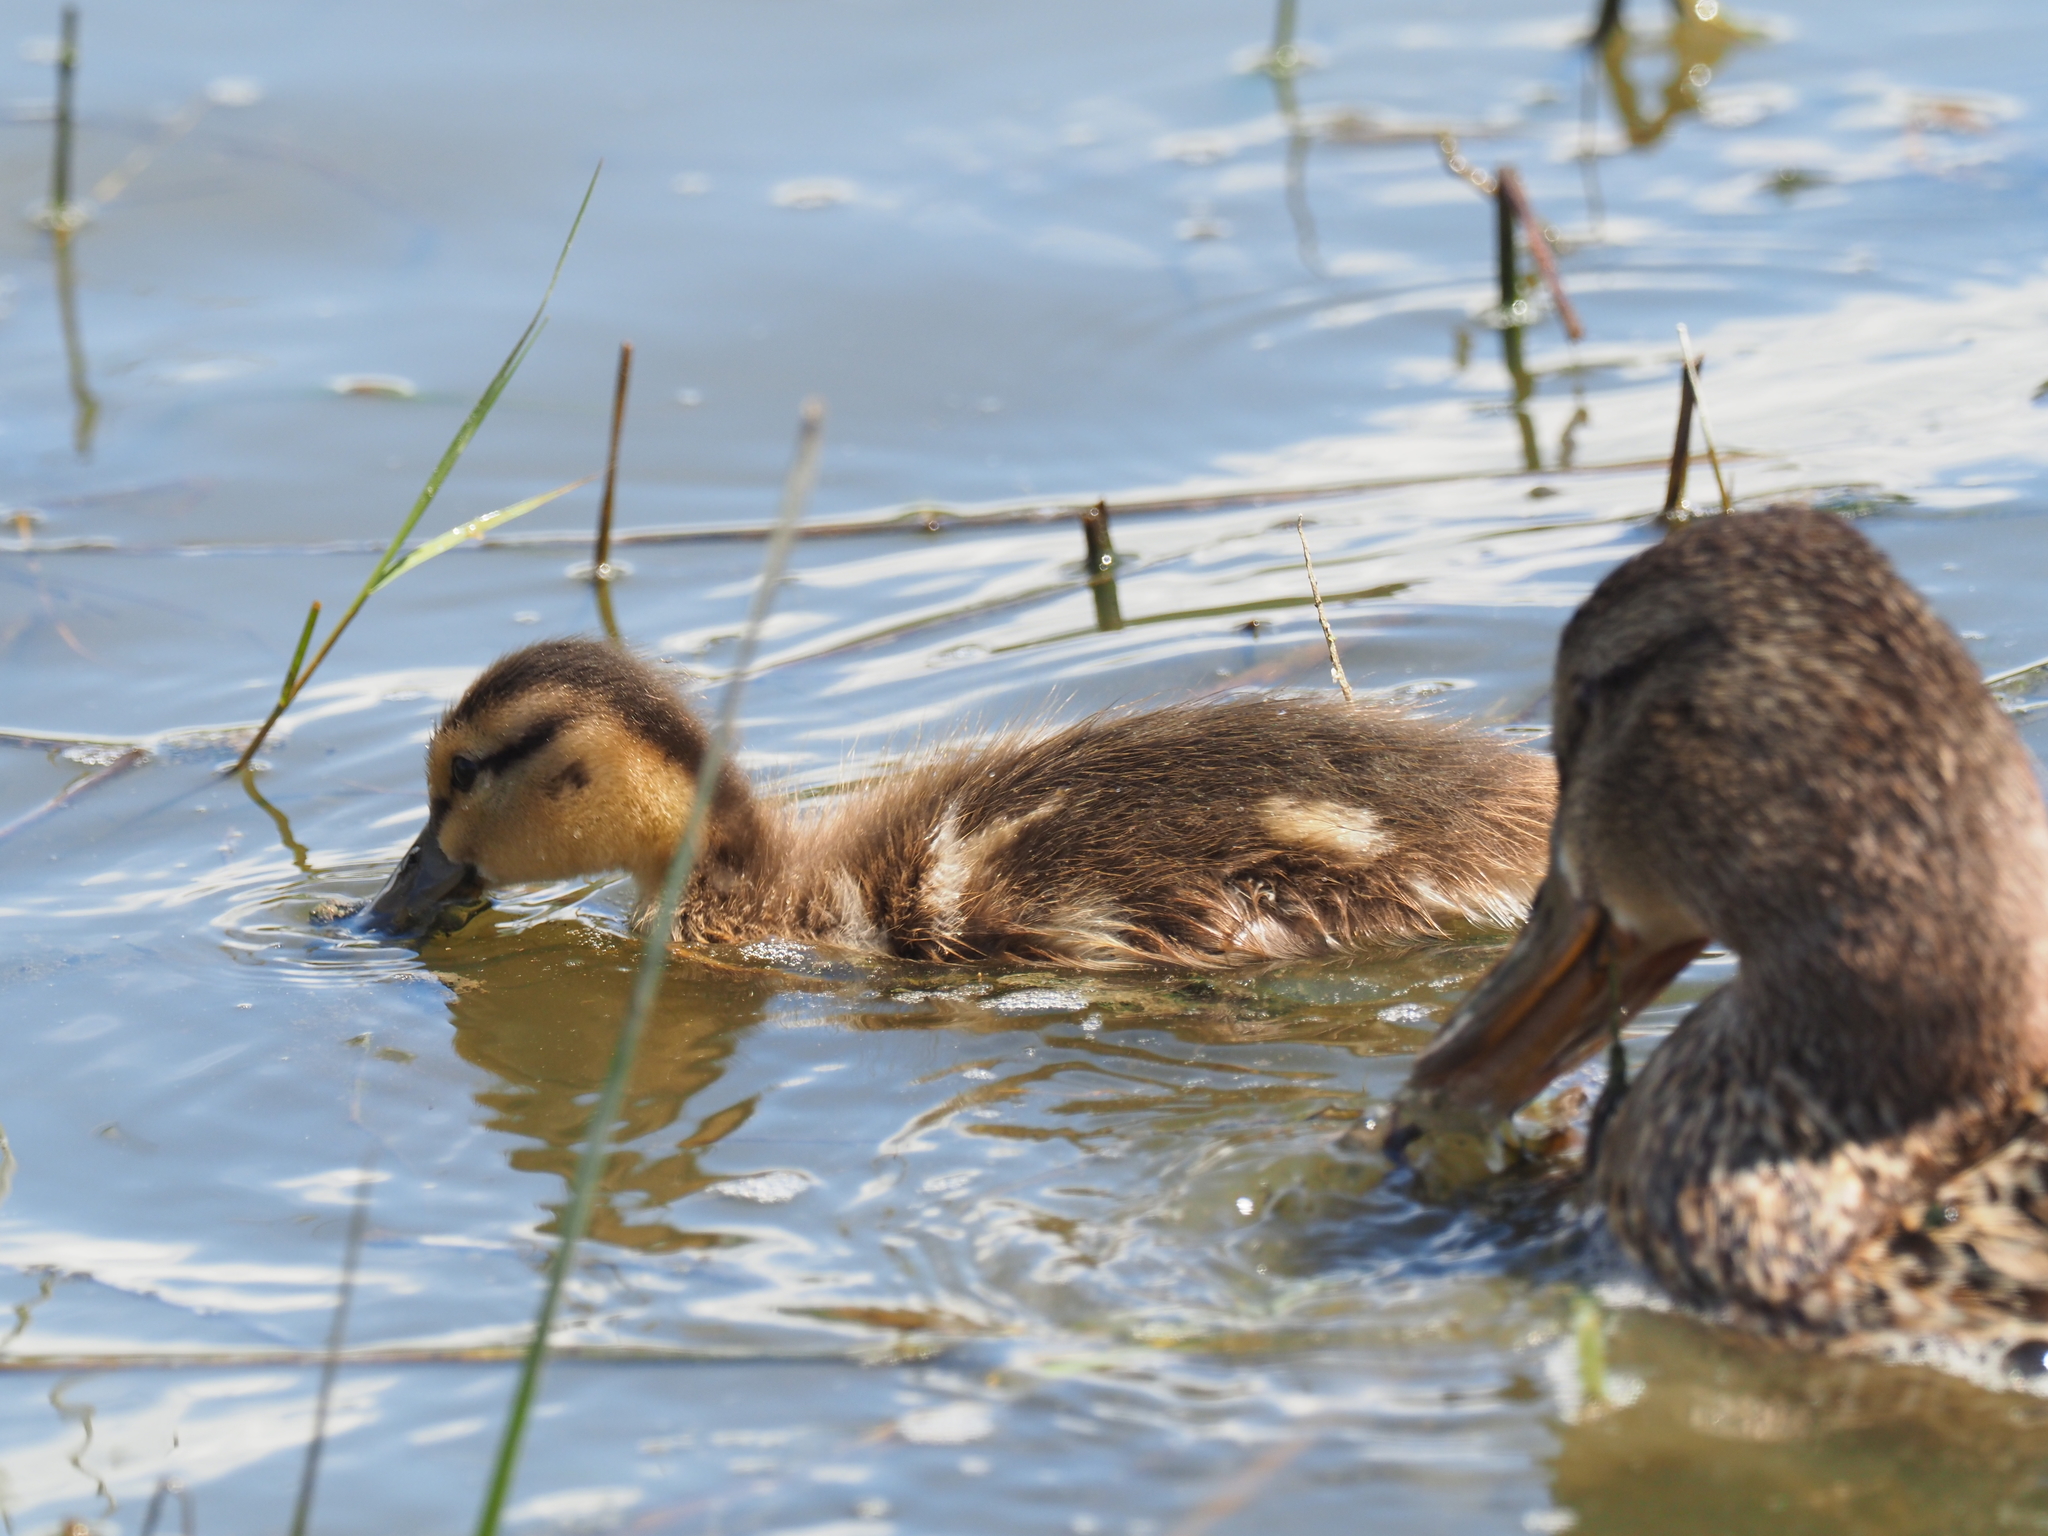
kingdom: Animalia
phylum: Chordata
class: Aves
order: Anseriformes
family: Anatidae
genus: Anas
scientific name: Anas platyrhynchos
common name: Mallard
